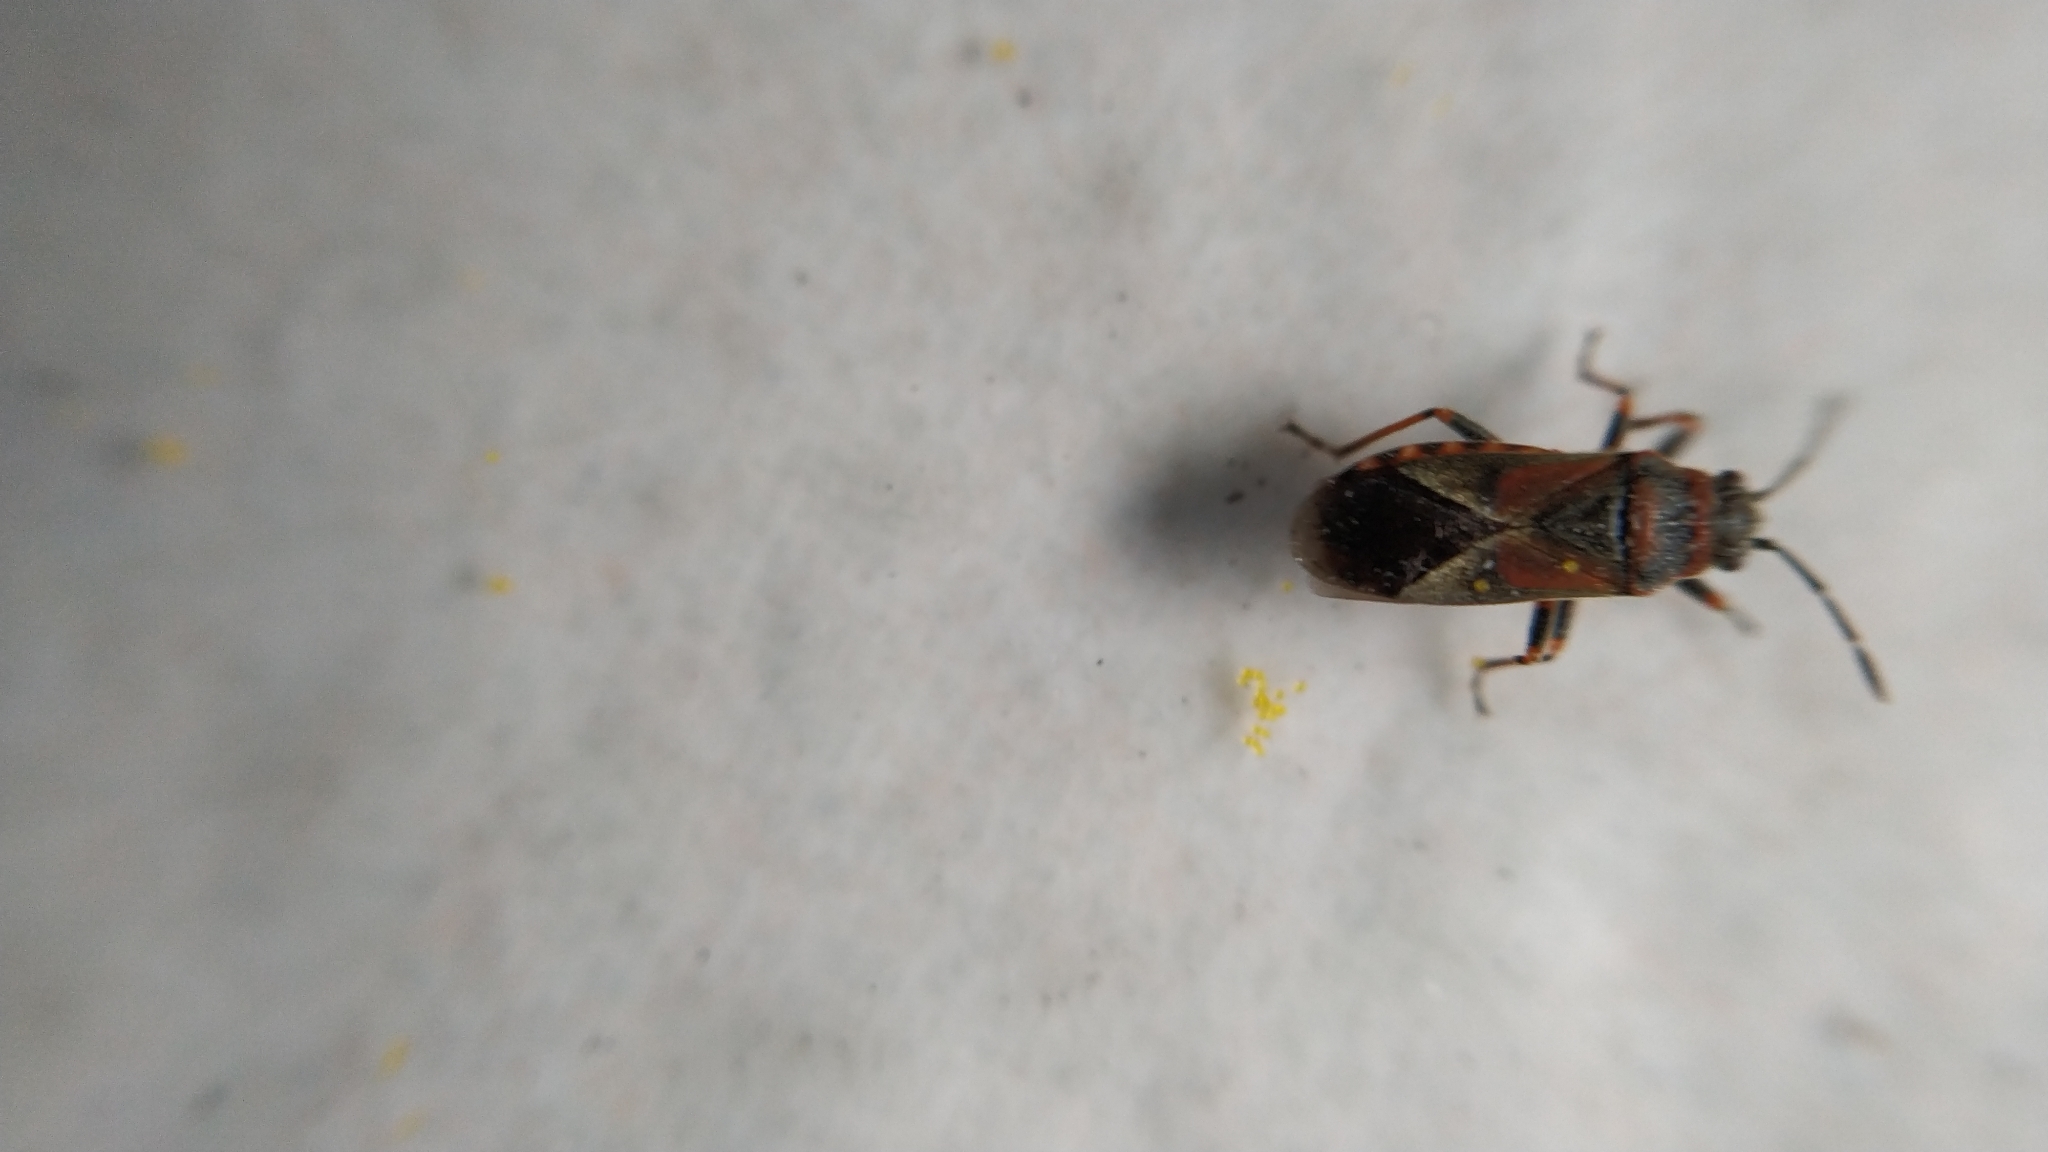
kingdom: Animalia
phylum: Arthropoda
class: Insecta
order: Hemiptera
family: Lygaeidae
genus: Arocatus
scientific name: Arocatus melanocephalus
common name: Lygaeid bug
